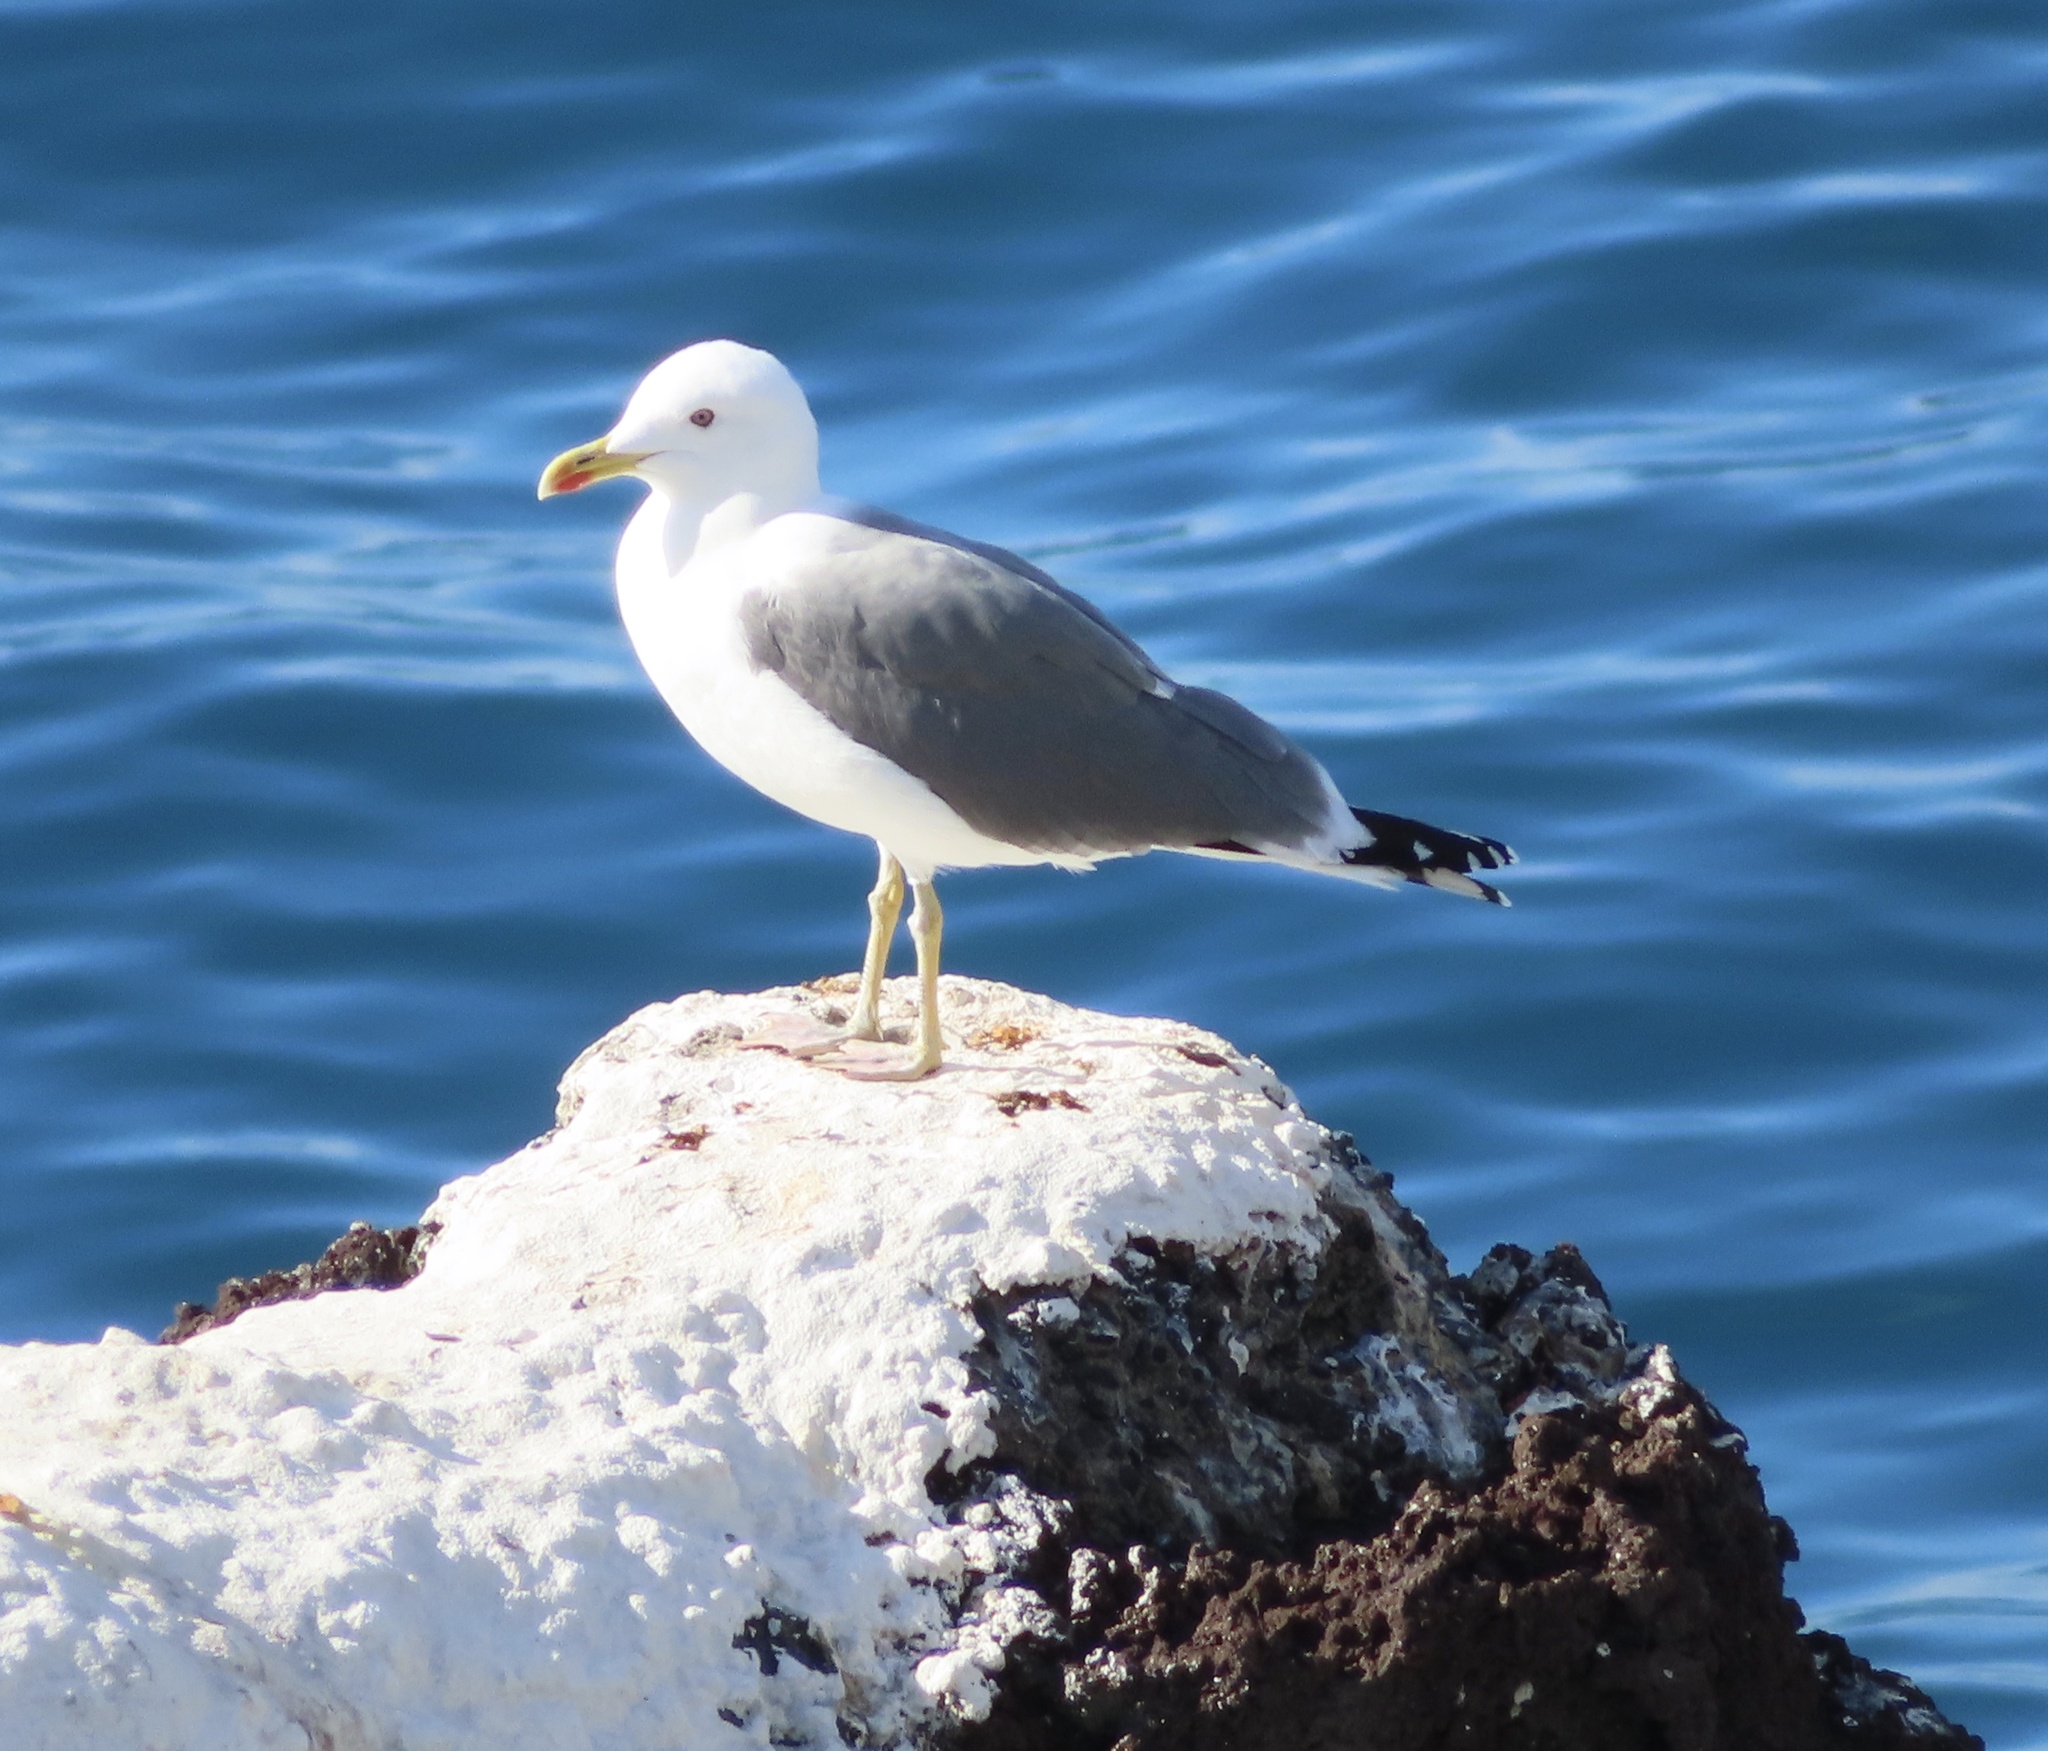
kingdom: Animalia
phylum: Chordata
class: Aves
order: Charadriiformes
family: Laridae
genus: Larus
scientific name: Larus michahellis
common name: Yellow-legged gull
